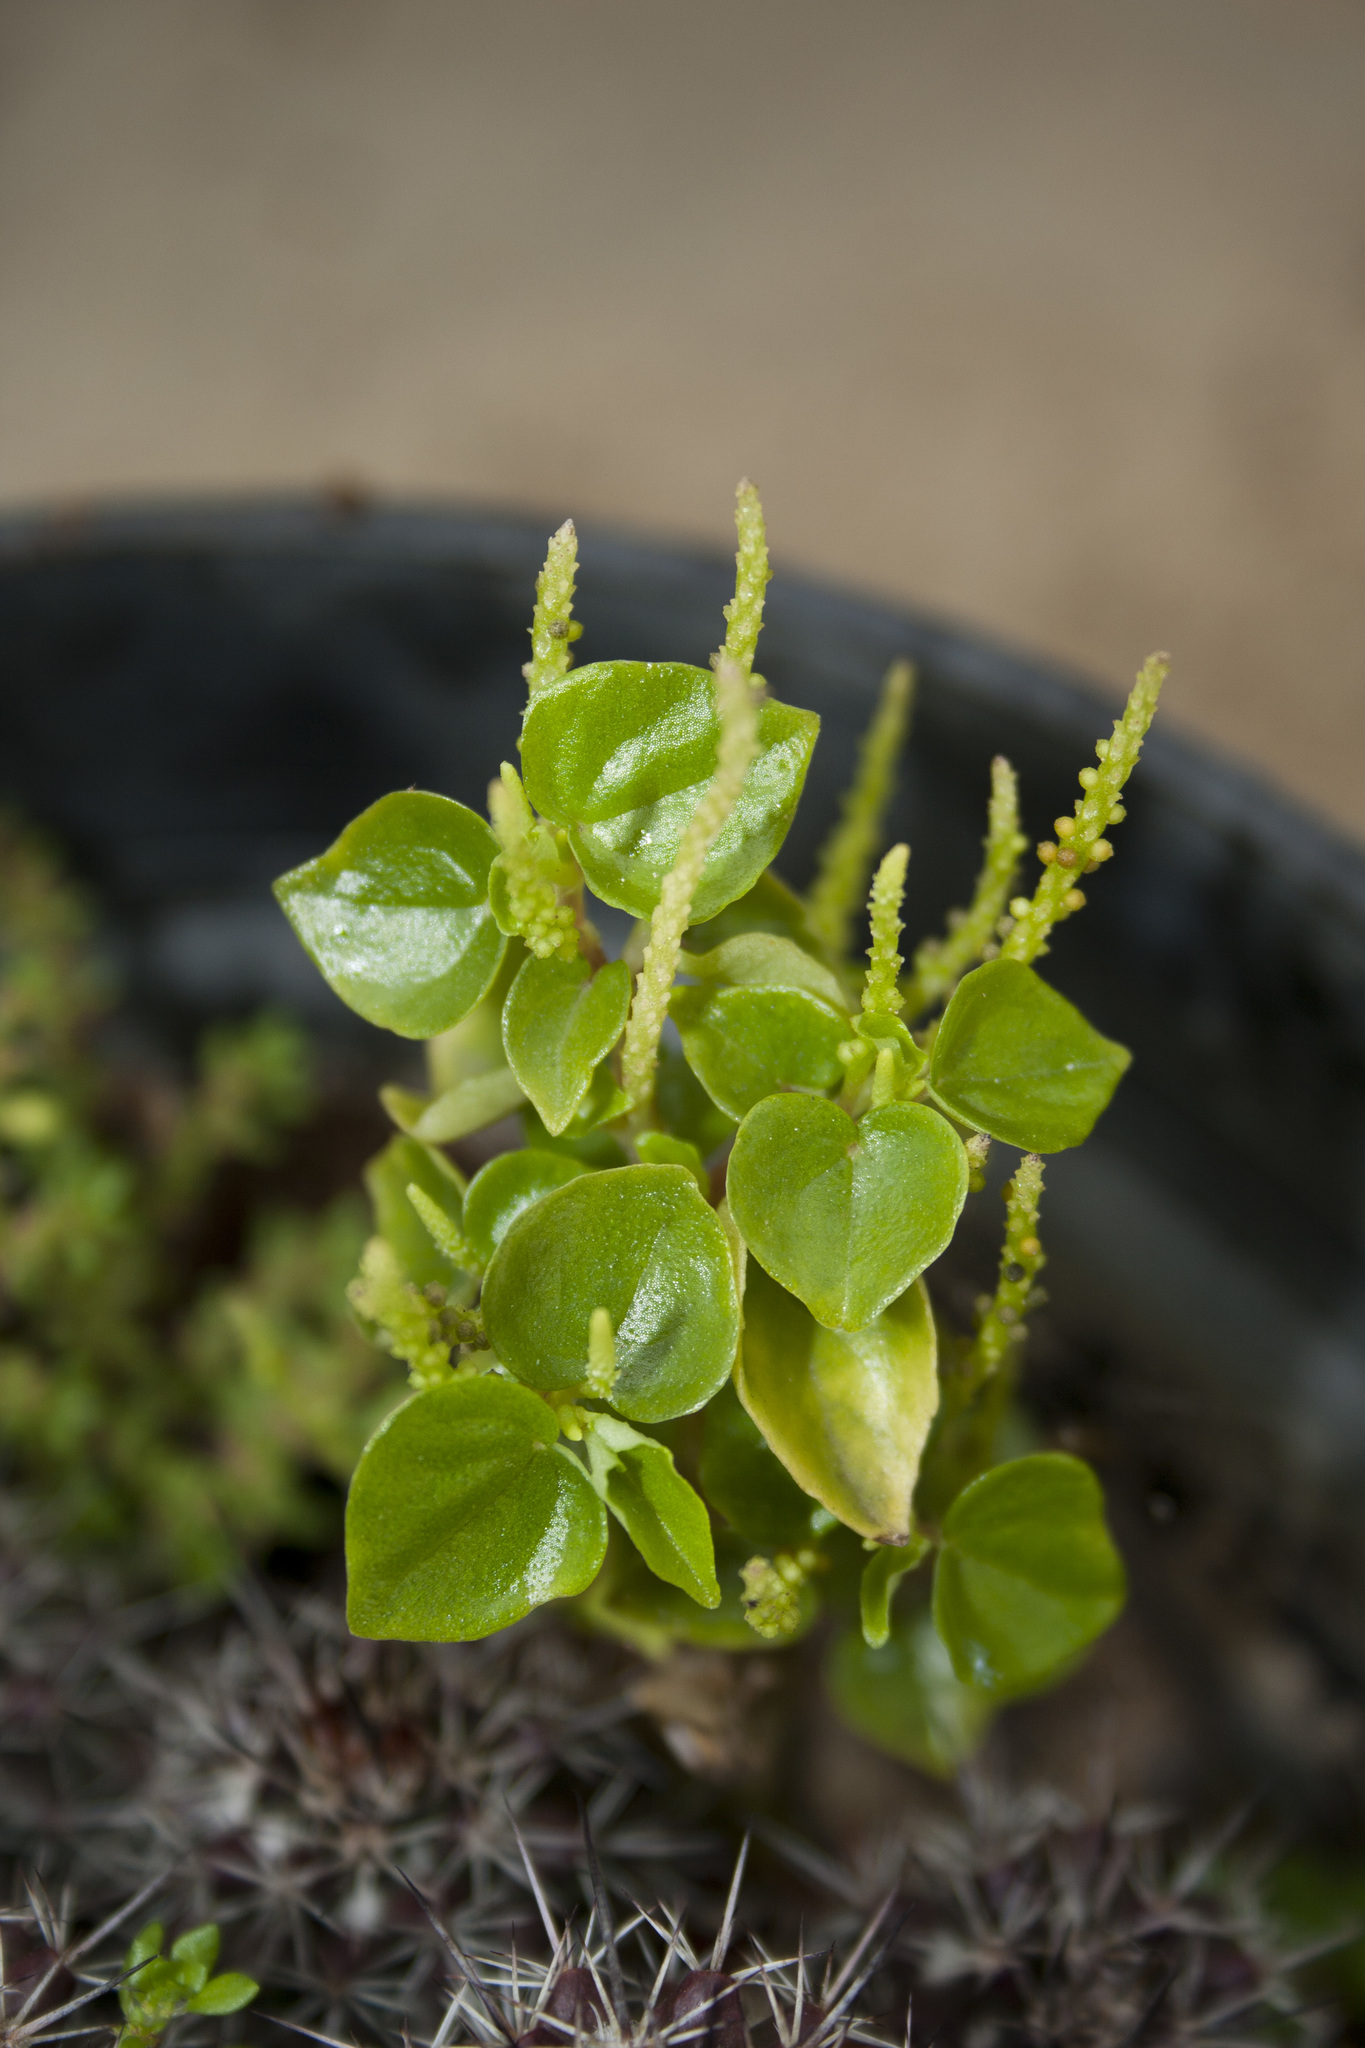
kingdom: Plantae
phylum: Tracheophyta
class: Magnoliopsida
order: Piperales
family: Piperaceae
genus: Peperomia
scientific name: Peperomia pellucida
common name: Man to man
